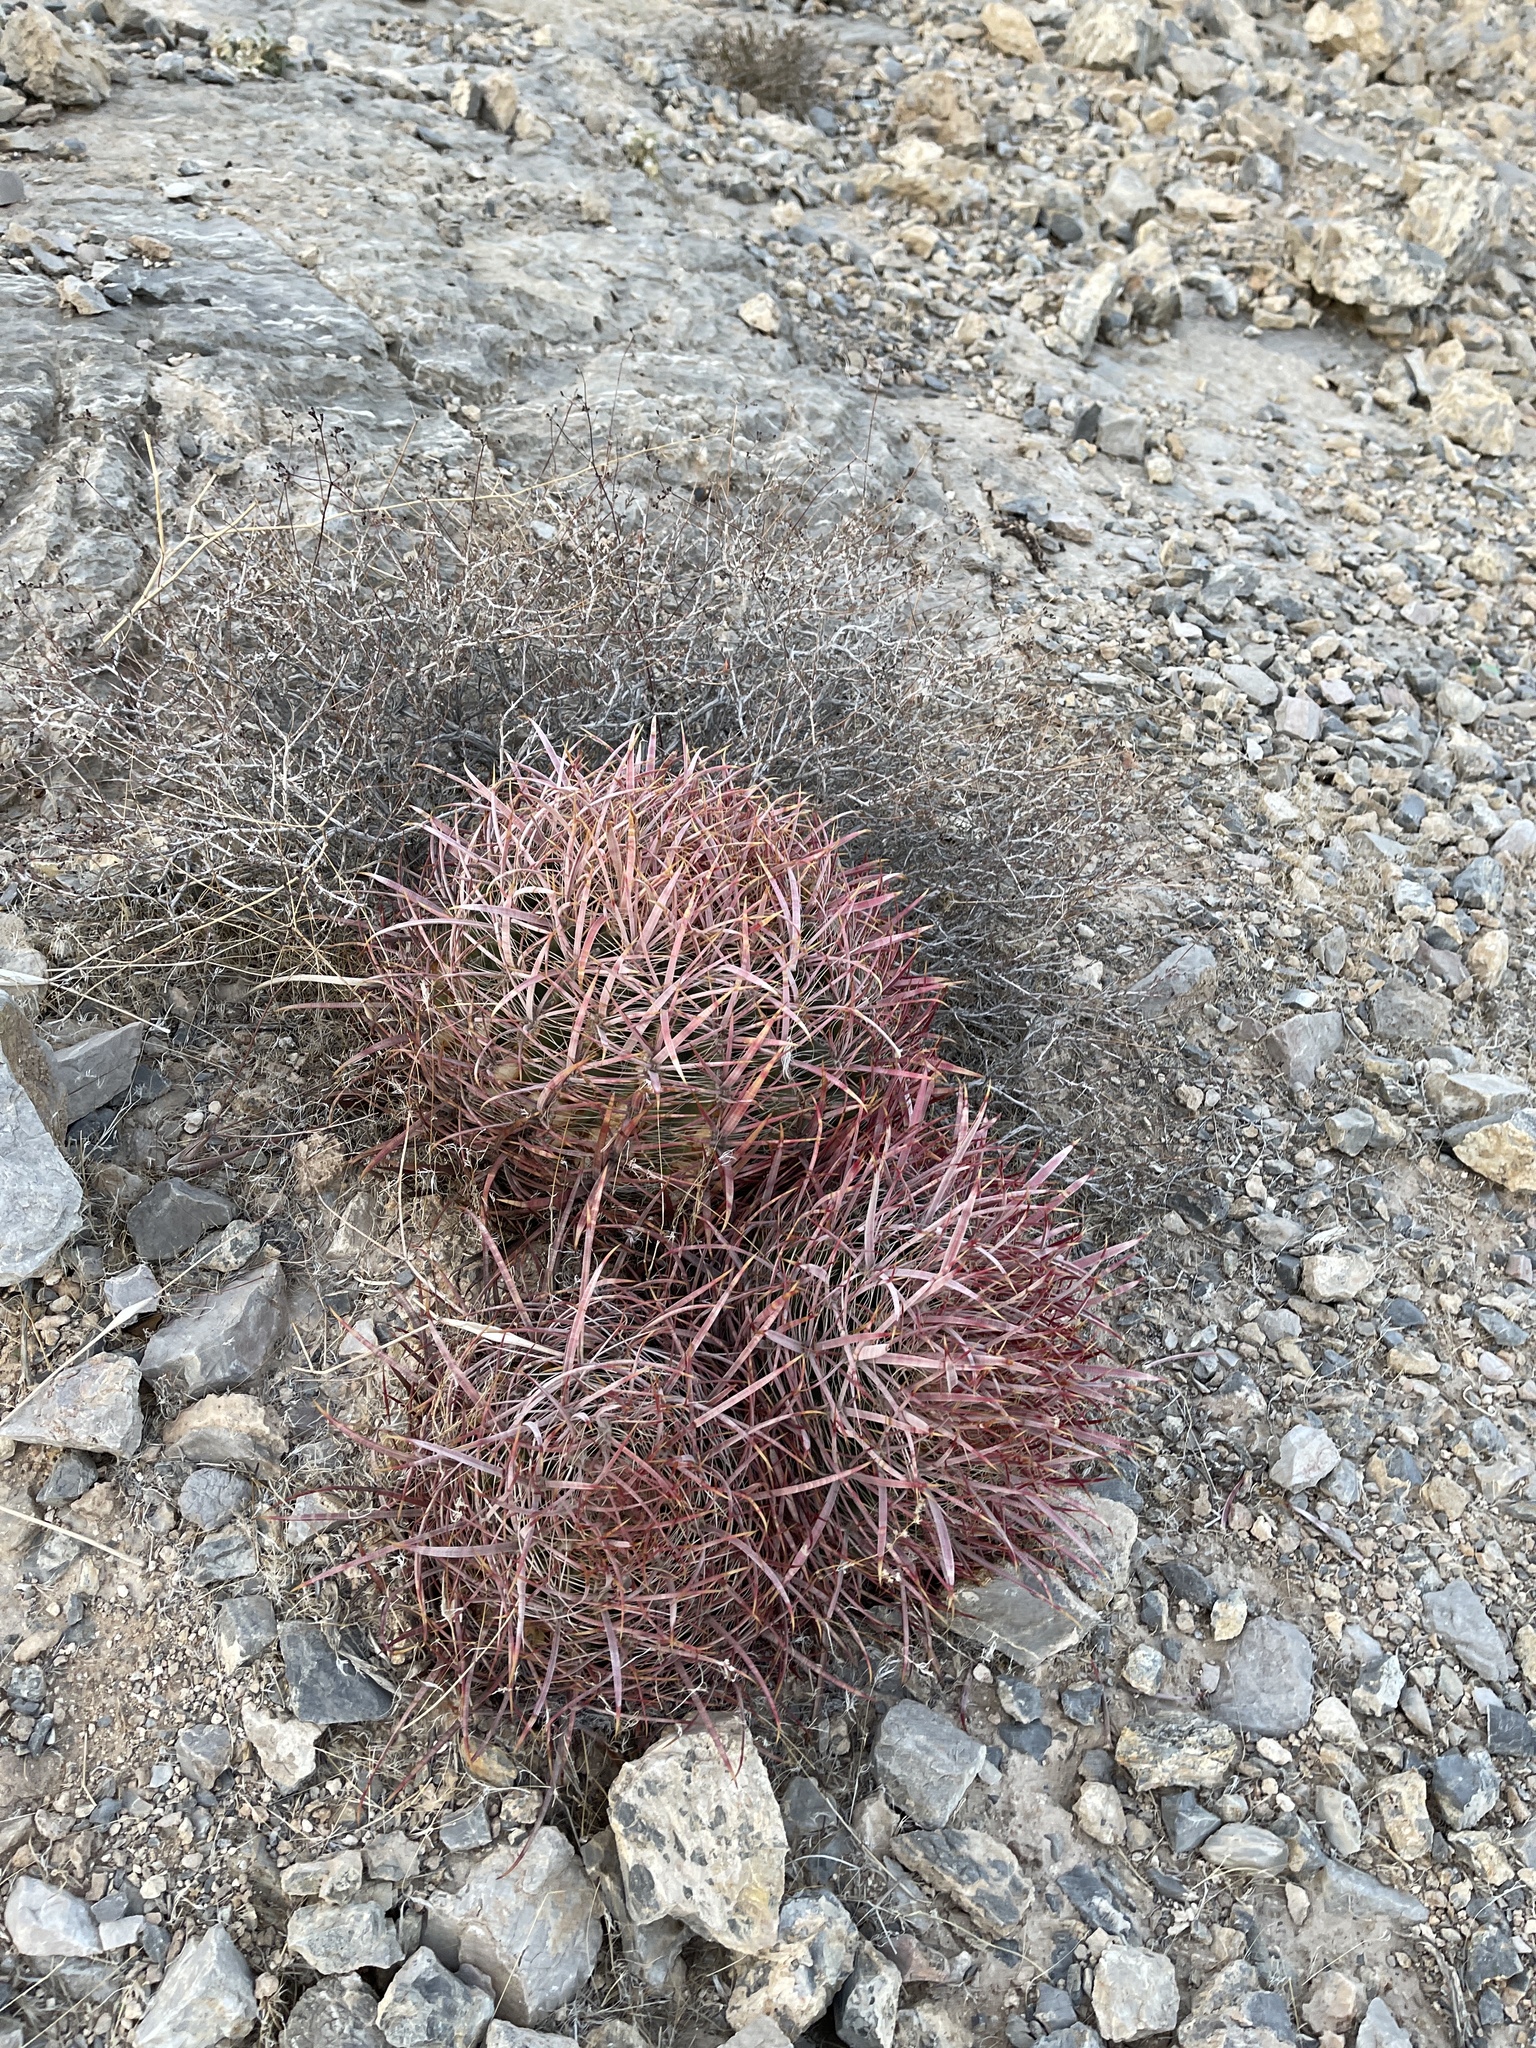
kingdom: Plantae
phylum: Tracheophyta
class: Magnoliopsida
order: Caryophyllales
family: Cactaceae
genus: Ferocactus
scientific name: Ferocactus cylindraceus
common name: California barrel cactus
